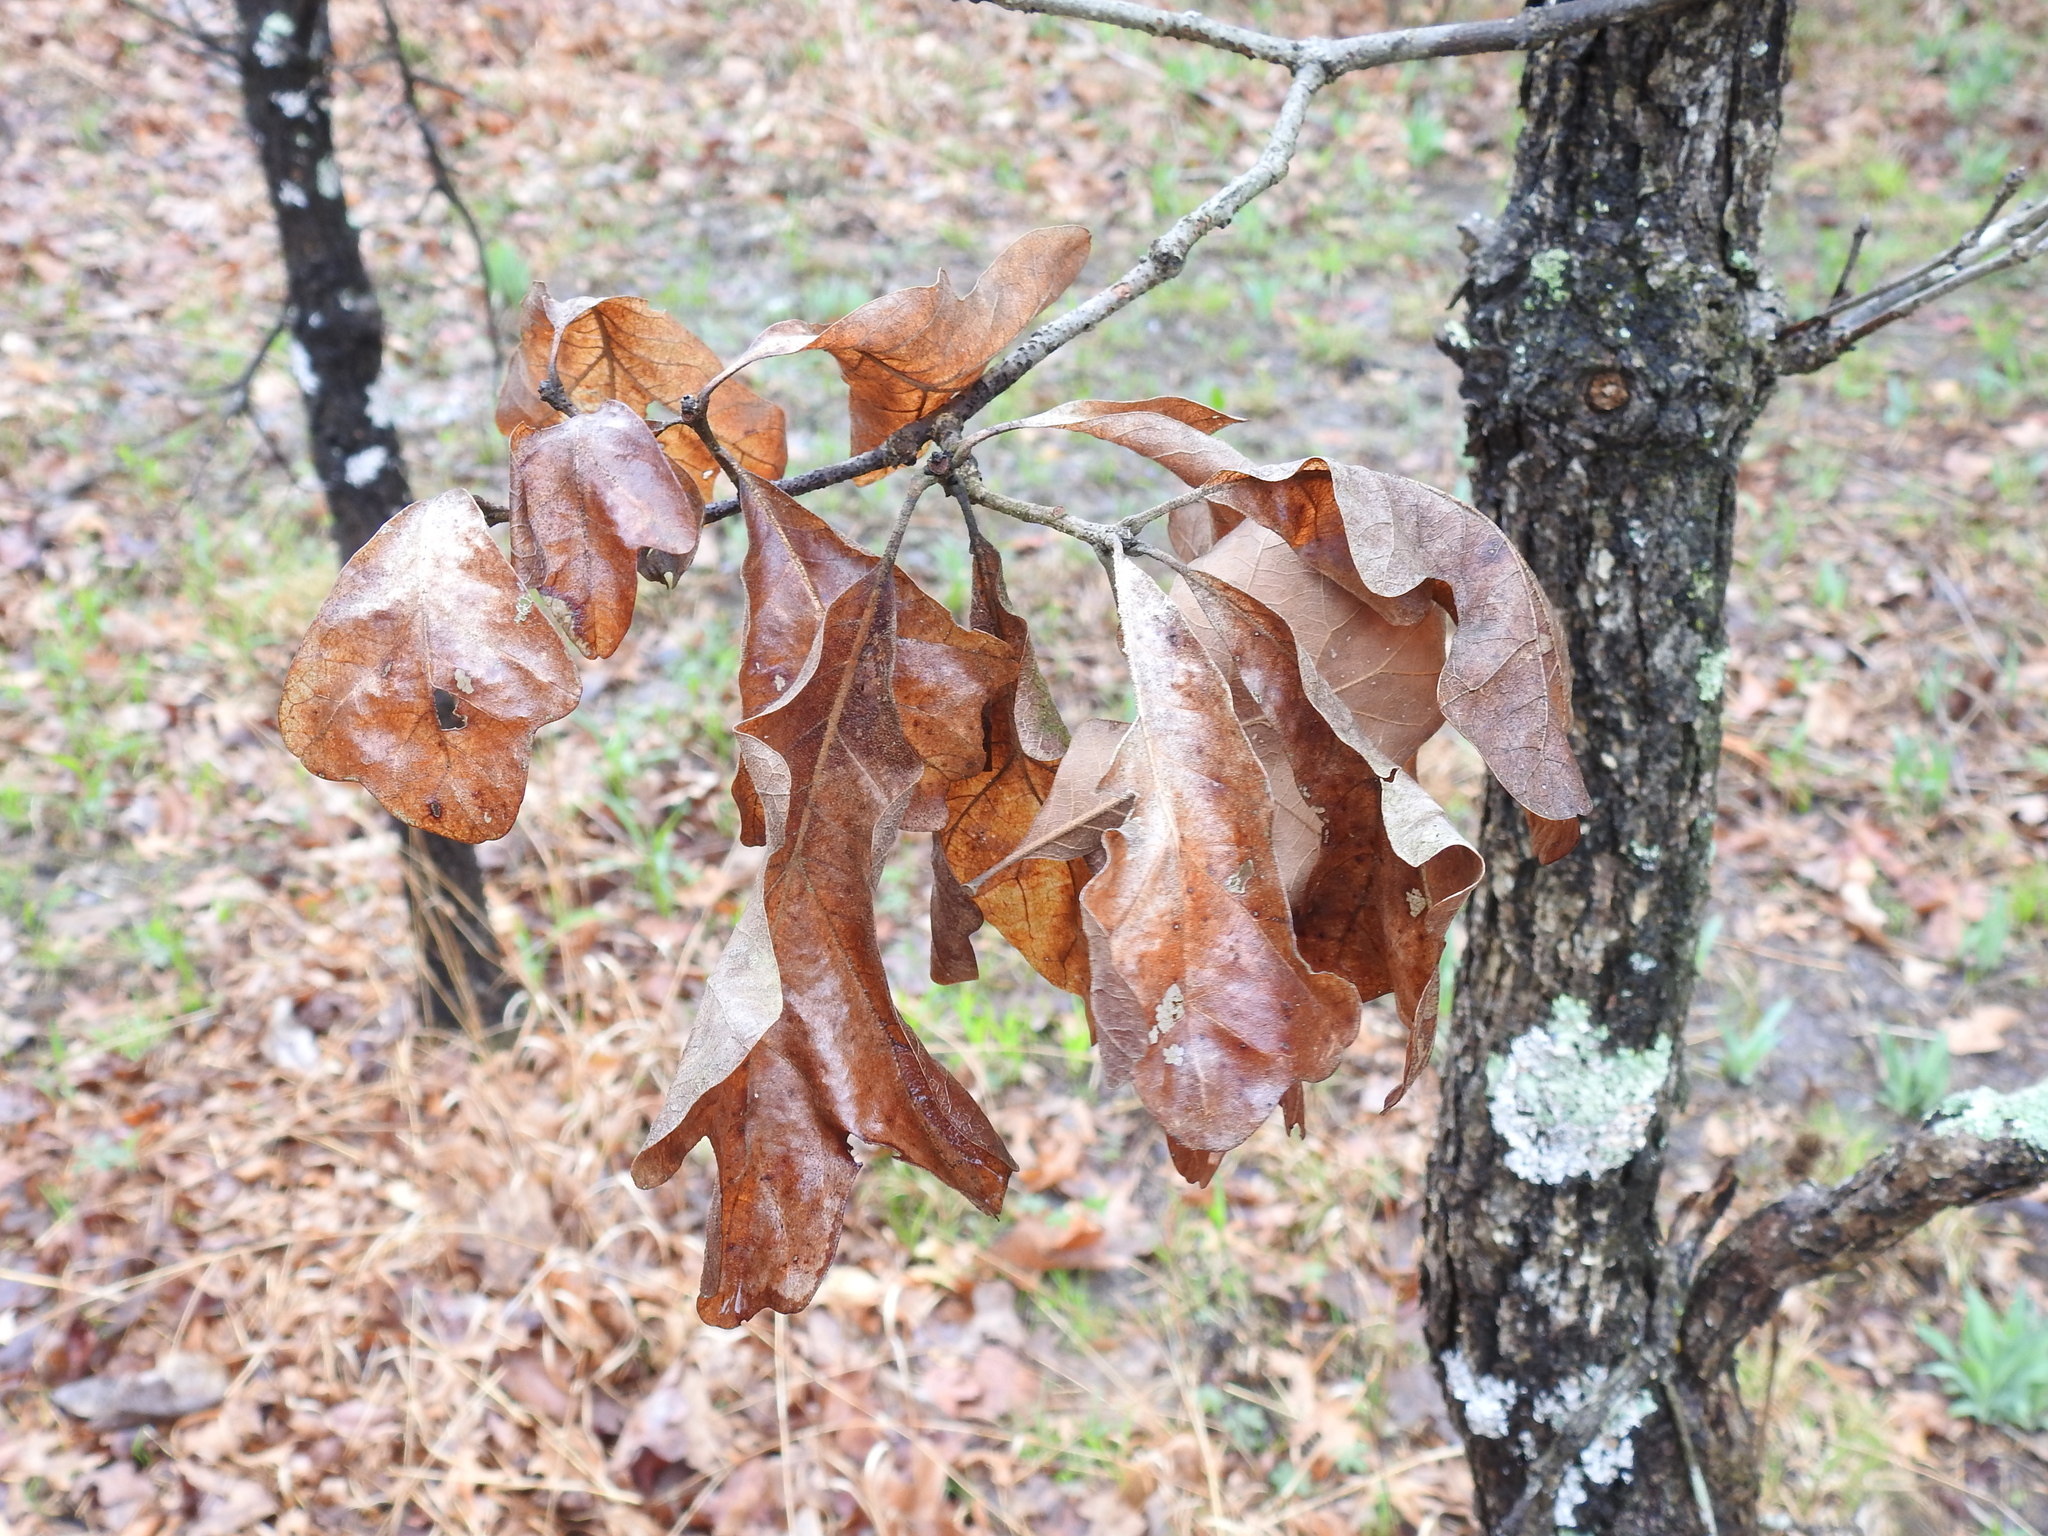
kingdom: Plantae
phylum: Tracheophyta
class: Magnoliopsida
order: Fagales
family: Fagaceae
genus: Quercus
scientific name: Quercus stellata
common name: Post oak
